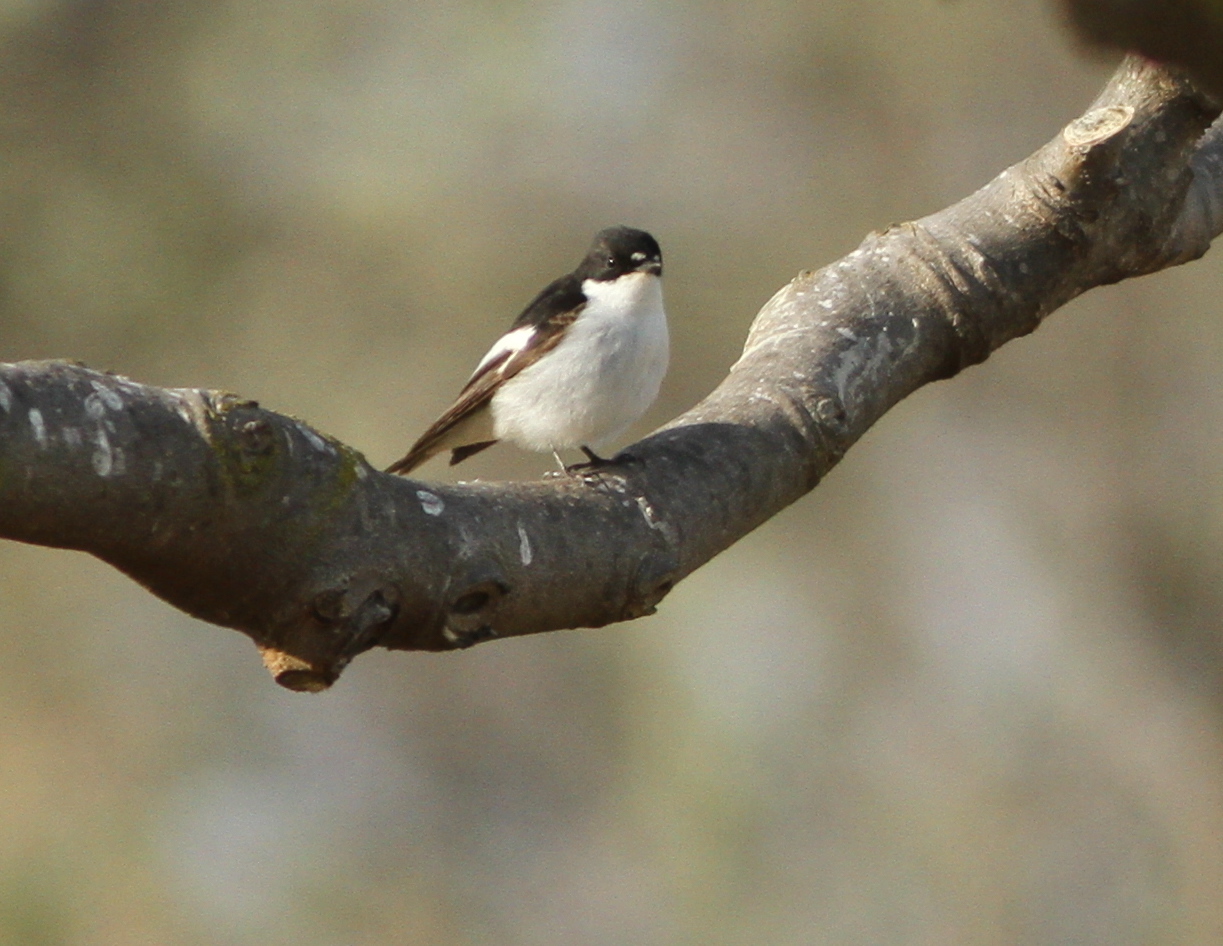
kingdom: Animalia
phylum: Chordata
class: Aves
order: Passeriformes
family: Muscicapidae
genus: Ficedula
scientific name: Ficedula hypoleuca
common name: European pied flycatcher
